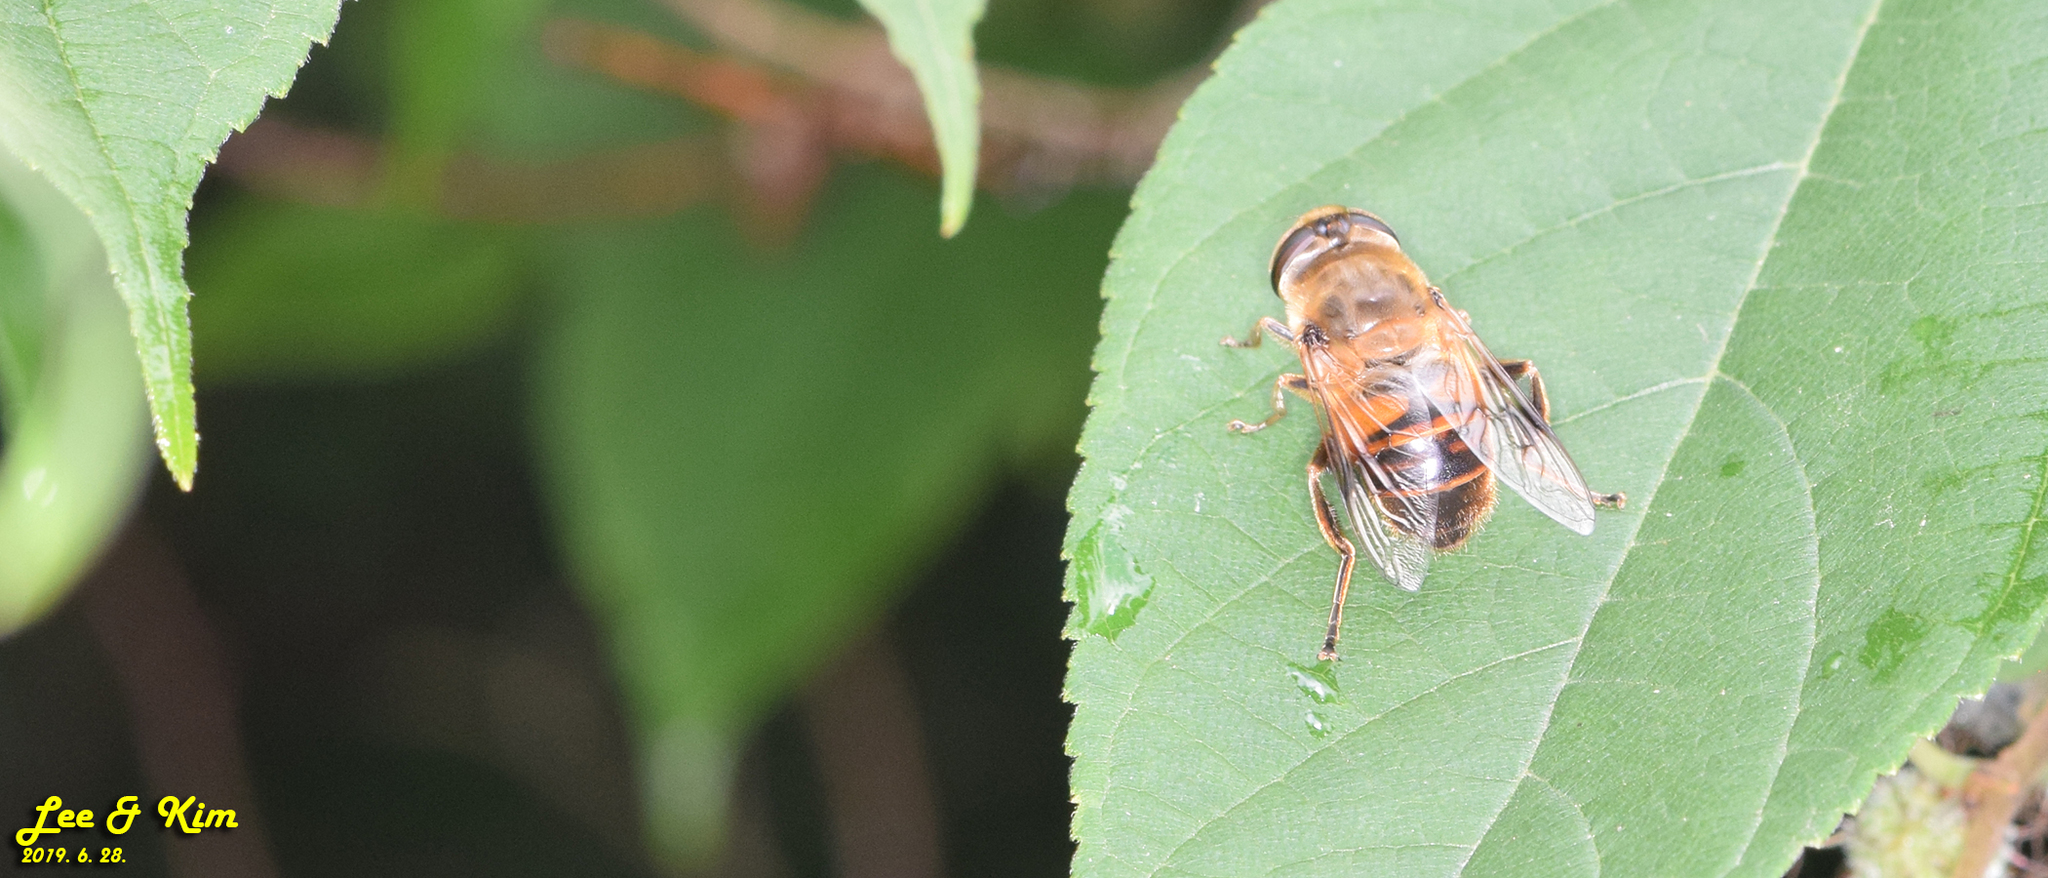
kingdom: Animalia
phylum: Arthropoda
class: Insecta
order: Diptera
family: Syrphidae
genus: Eristalis
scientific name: Eristalis tenax
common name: Drone fly
